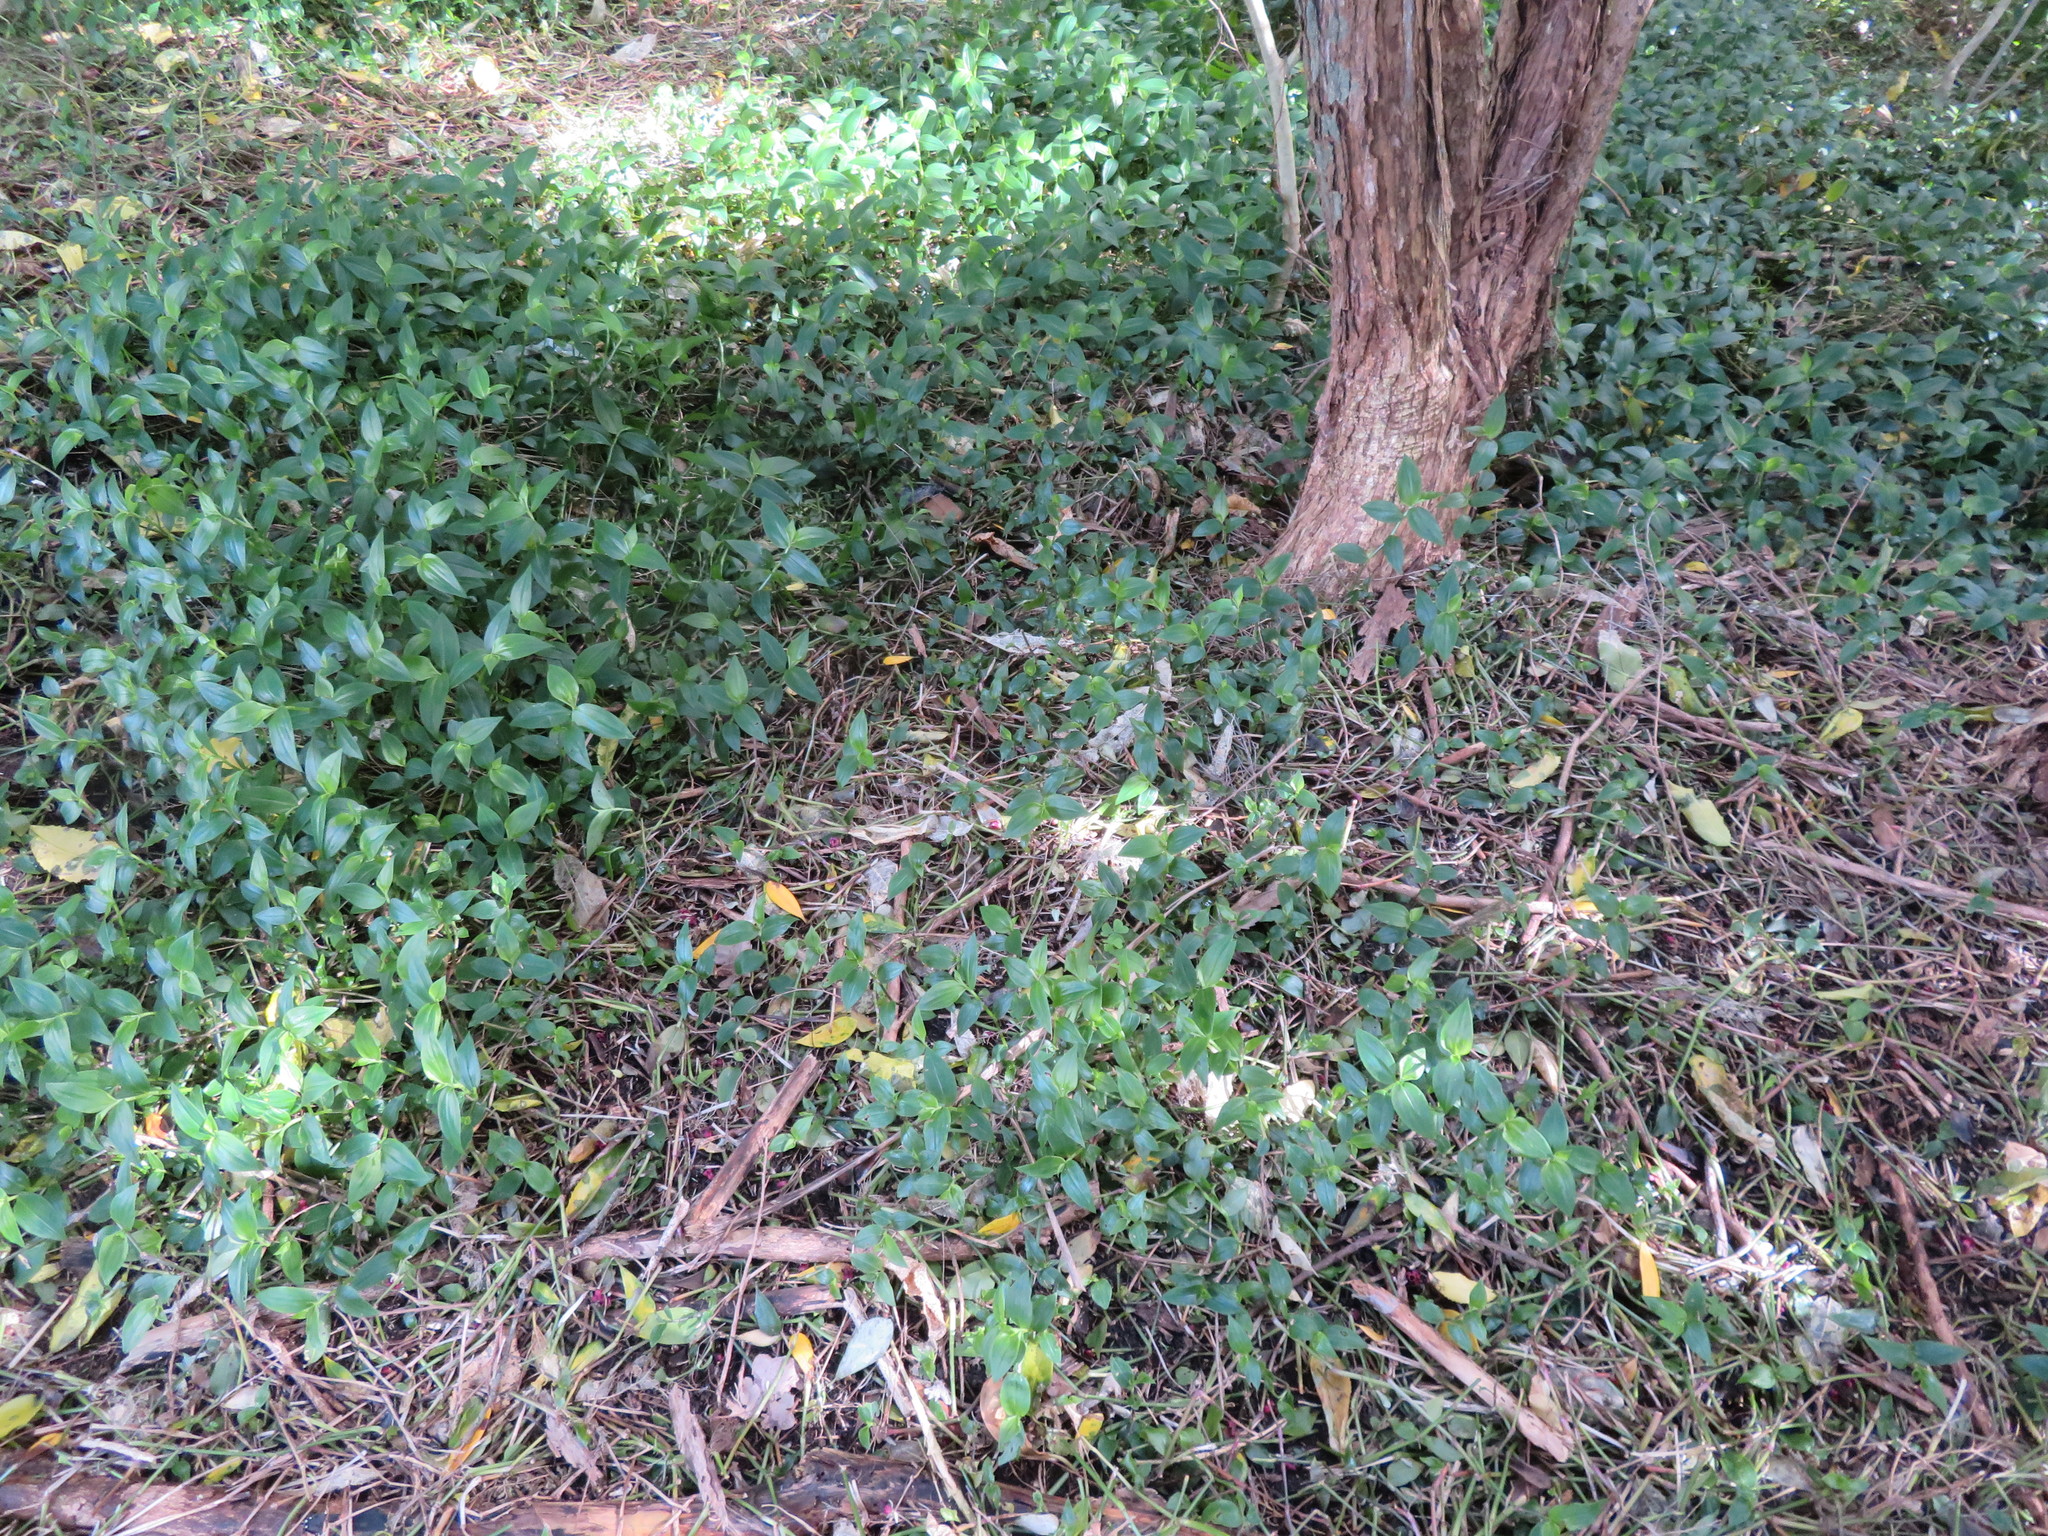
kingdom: Plantae
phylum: Tracheophyta
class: Liliopsida
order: Commelinales
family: Commelinaceae
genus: Tradescantia
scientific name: Tradescantia fluminensis
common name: Wandering-jew
